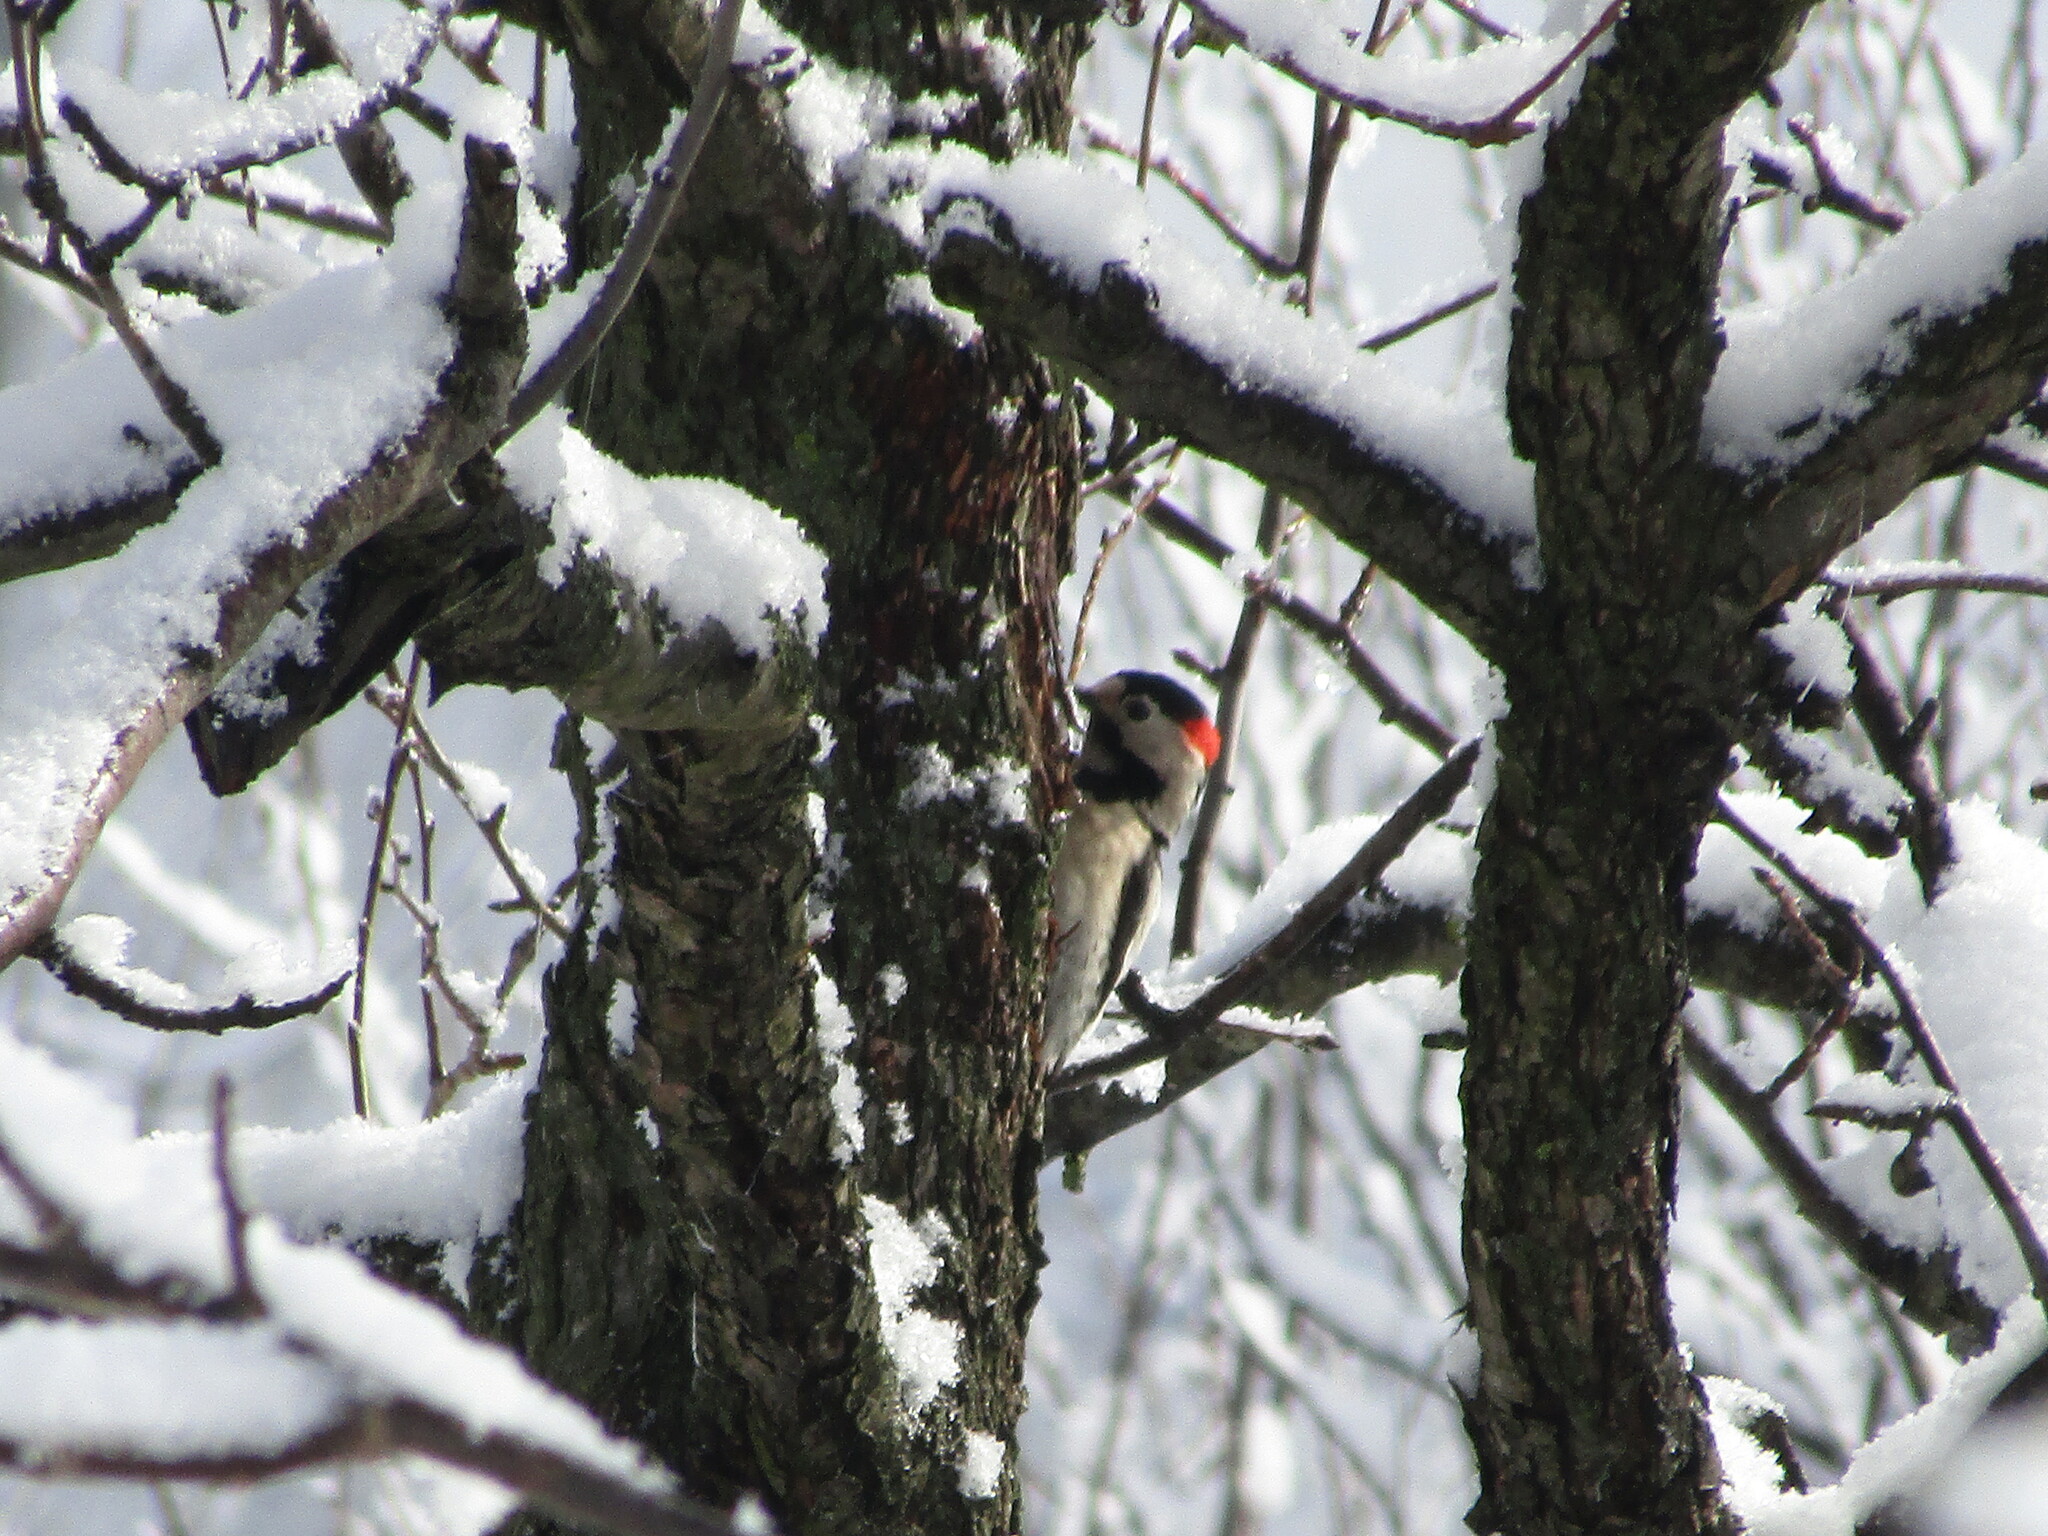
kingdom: Animalia
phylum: Chordata
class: Aves
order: Piciformes
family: Picidae
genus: Dendrocopos
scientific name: Dendrocopos syriacus
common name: Syrian woodpecker
